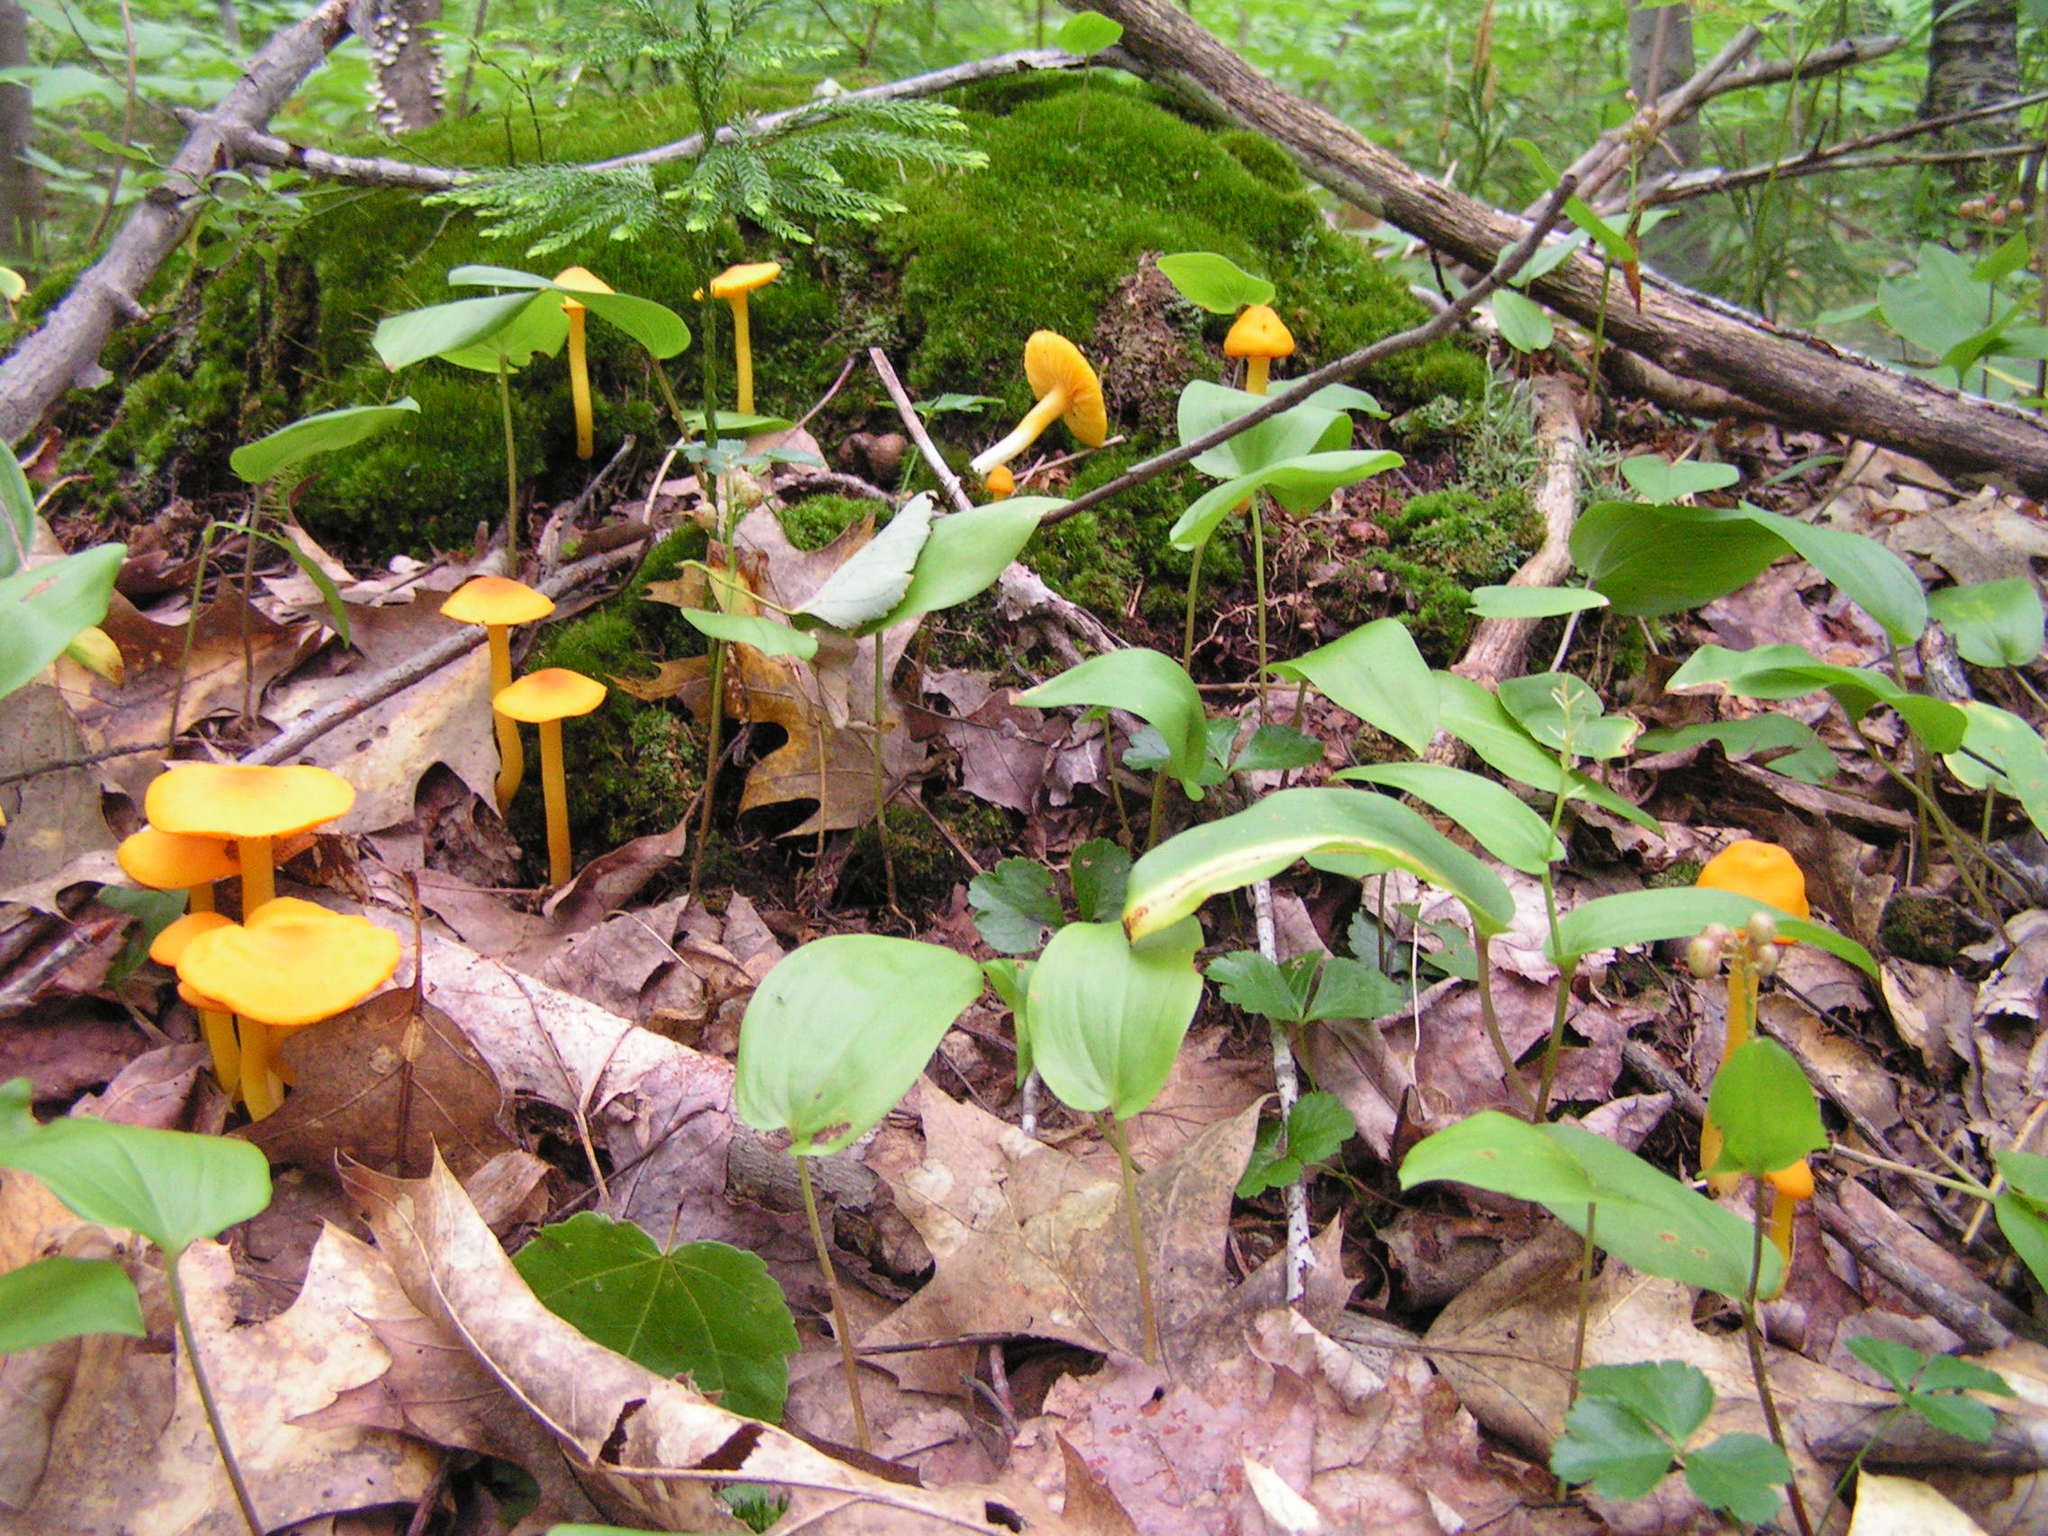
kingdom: Fungi
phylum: Basidiomycota
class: Agaricomycetes
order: Agaricales
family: Hygrophoraceae
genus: Humidicutis
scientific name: Humidicutis marginata
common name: Orange gilled waxcap
